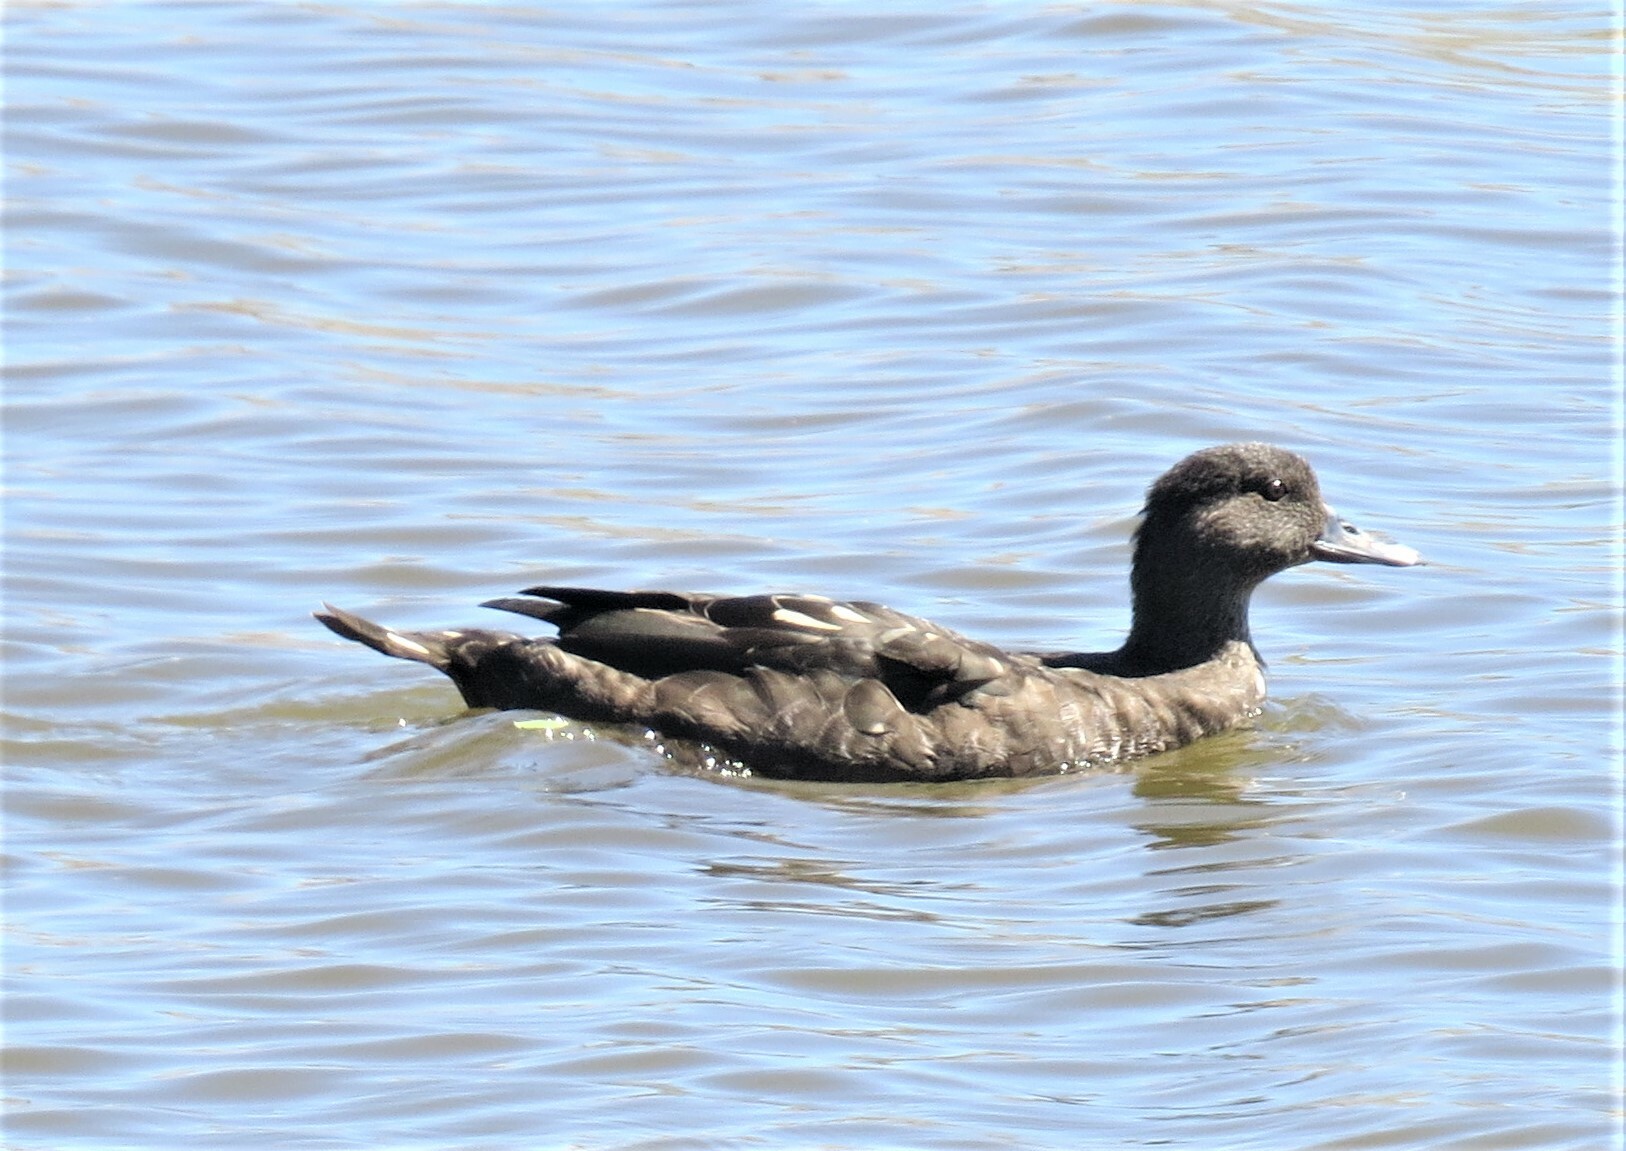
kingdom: Animalia
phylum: Chordata
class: Aves
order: Anseriformes
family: Anatidae
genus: Anas
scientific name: Anas sparsa
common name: African black duck
